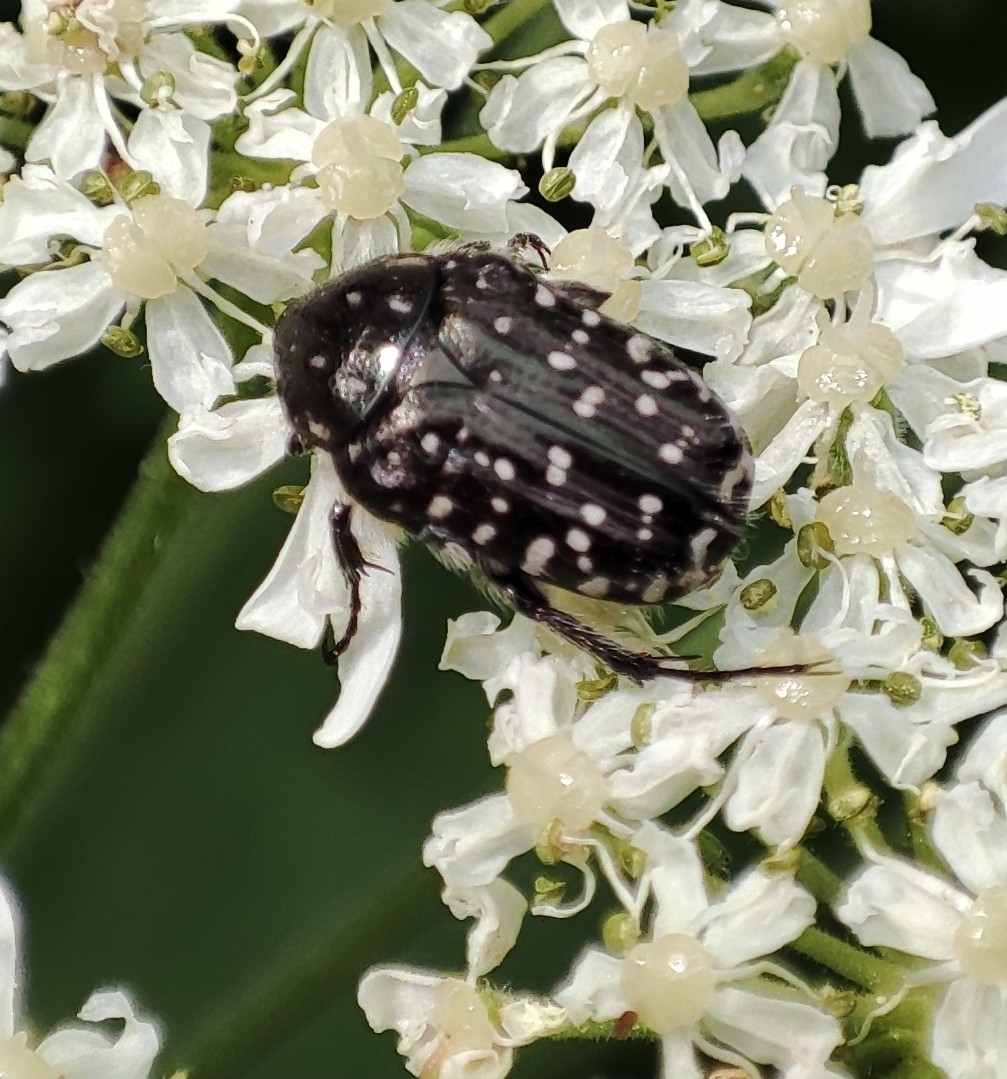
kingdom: Animalia
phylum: Arthropoda
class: Insecta
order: Coleoptera
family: Scarabaeidae
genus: Oxythyrea
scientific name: Oxythyrea funesta
